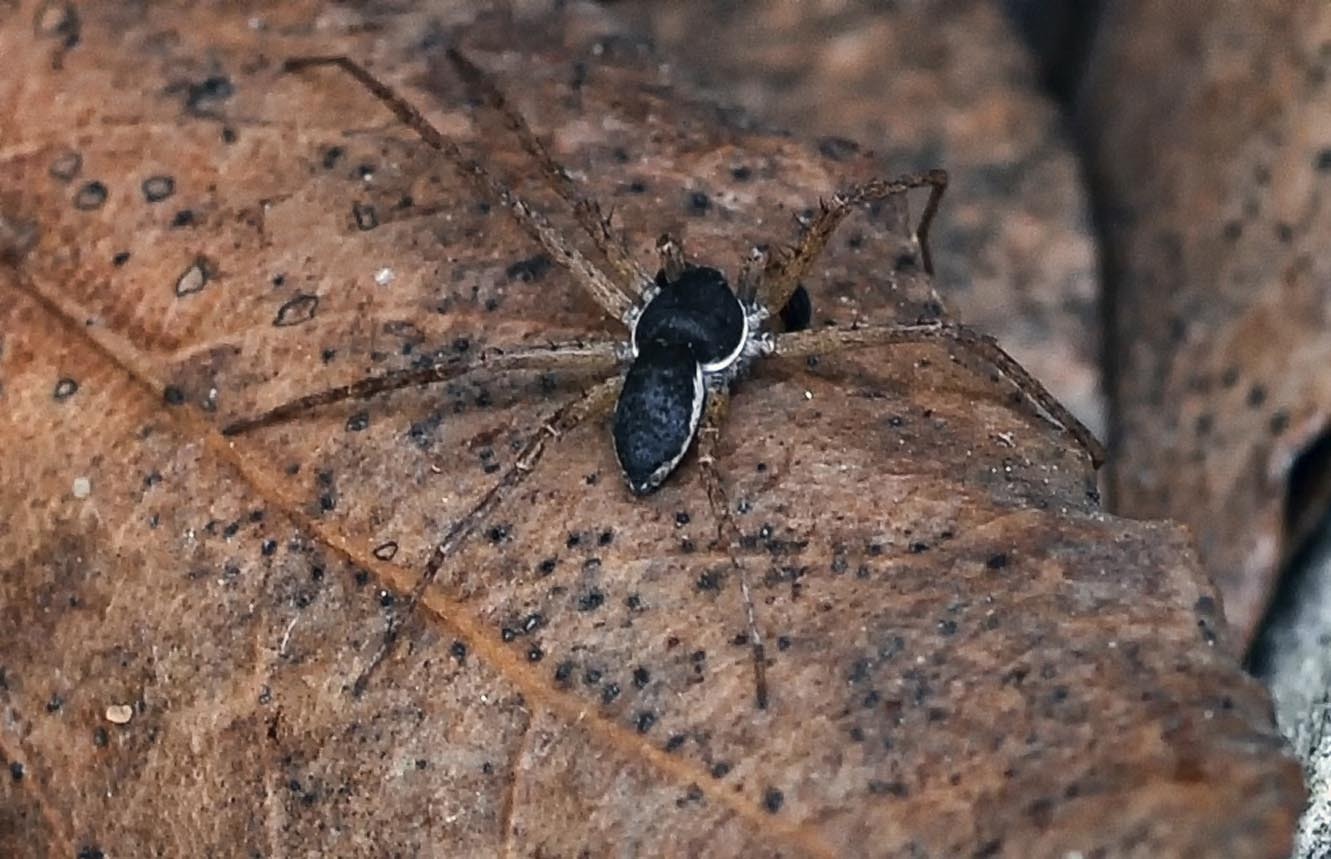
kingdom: Animalia
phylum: Arthropoda
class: Arachnida
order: Araneae
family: Philodromidae
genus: Philodromus
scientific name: Philodromus dispar
